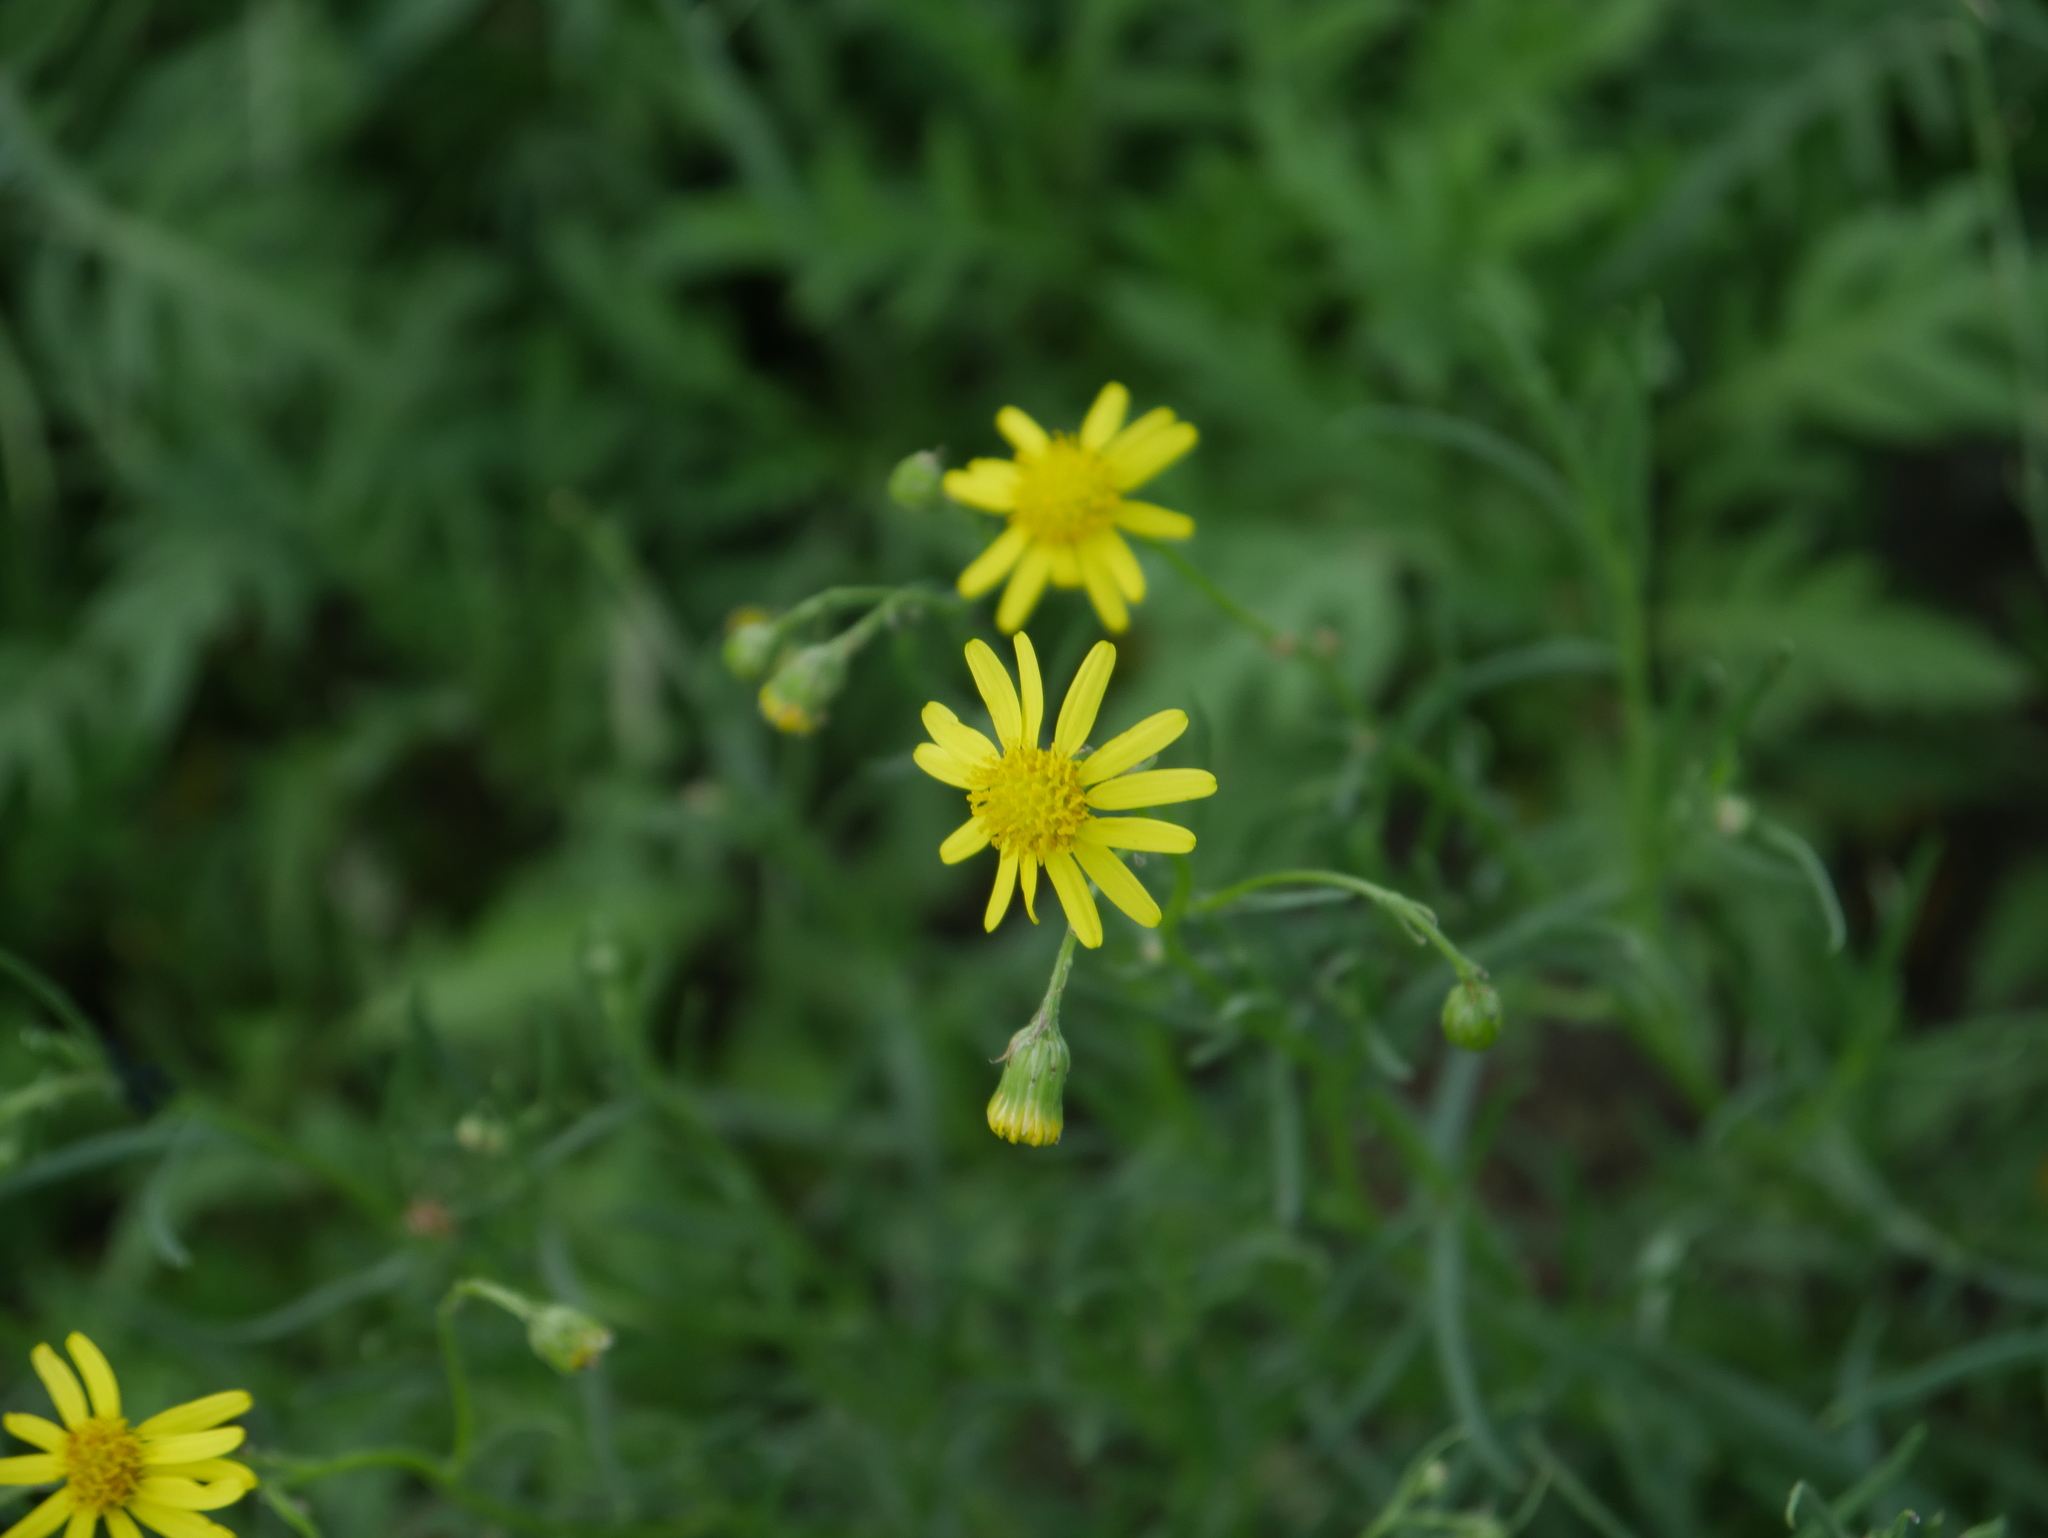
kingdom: Plantae
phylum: Tracheophyta
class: Magnoliopsida
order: Asterales
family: Asteraceae
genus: Senecio
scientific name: Senecio inaequidens
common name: Narrow-leaved ragwort
